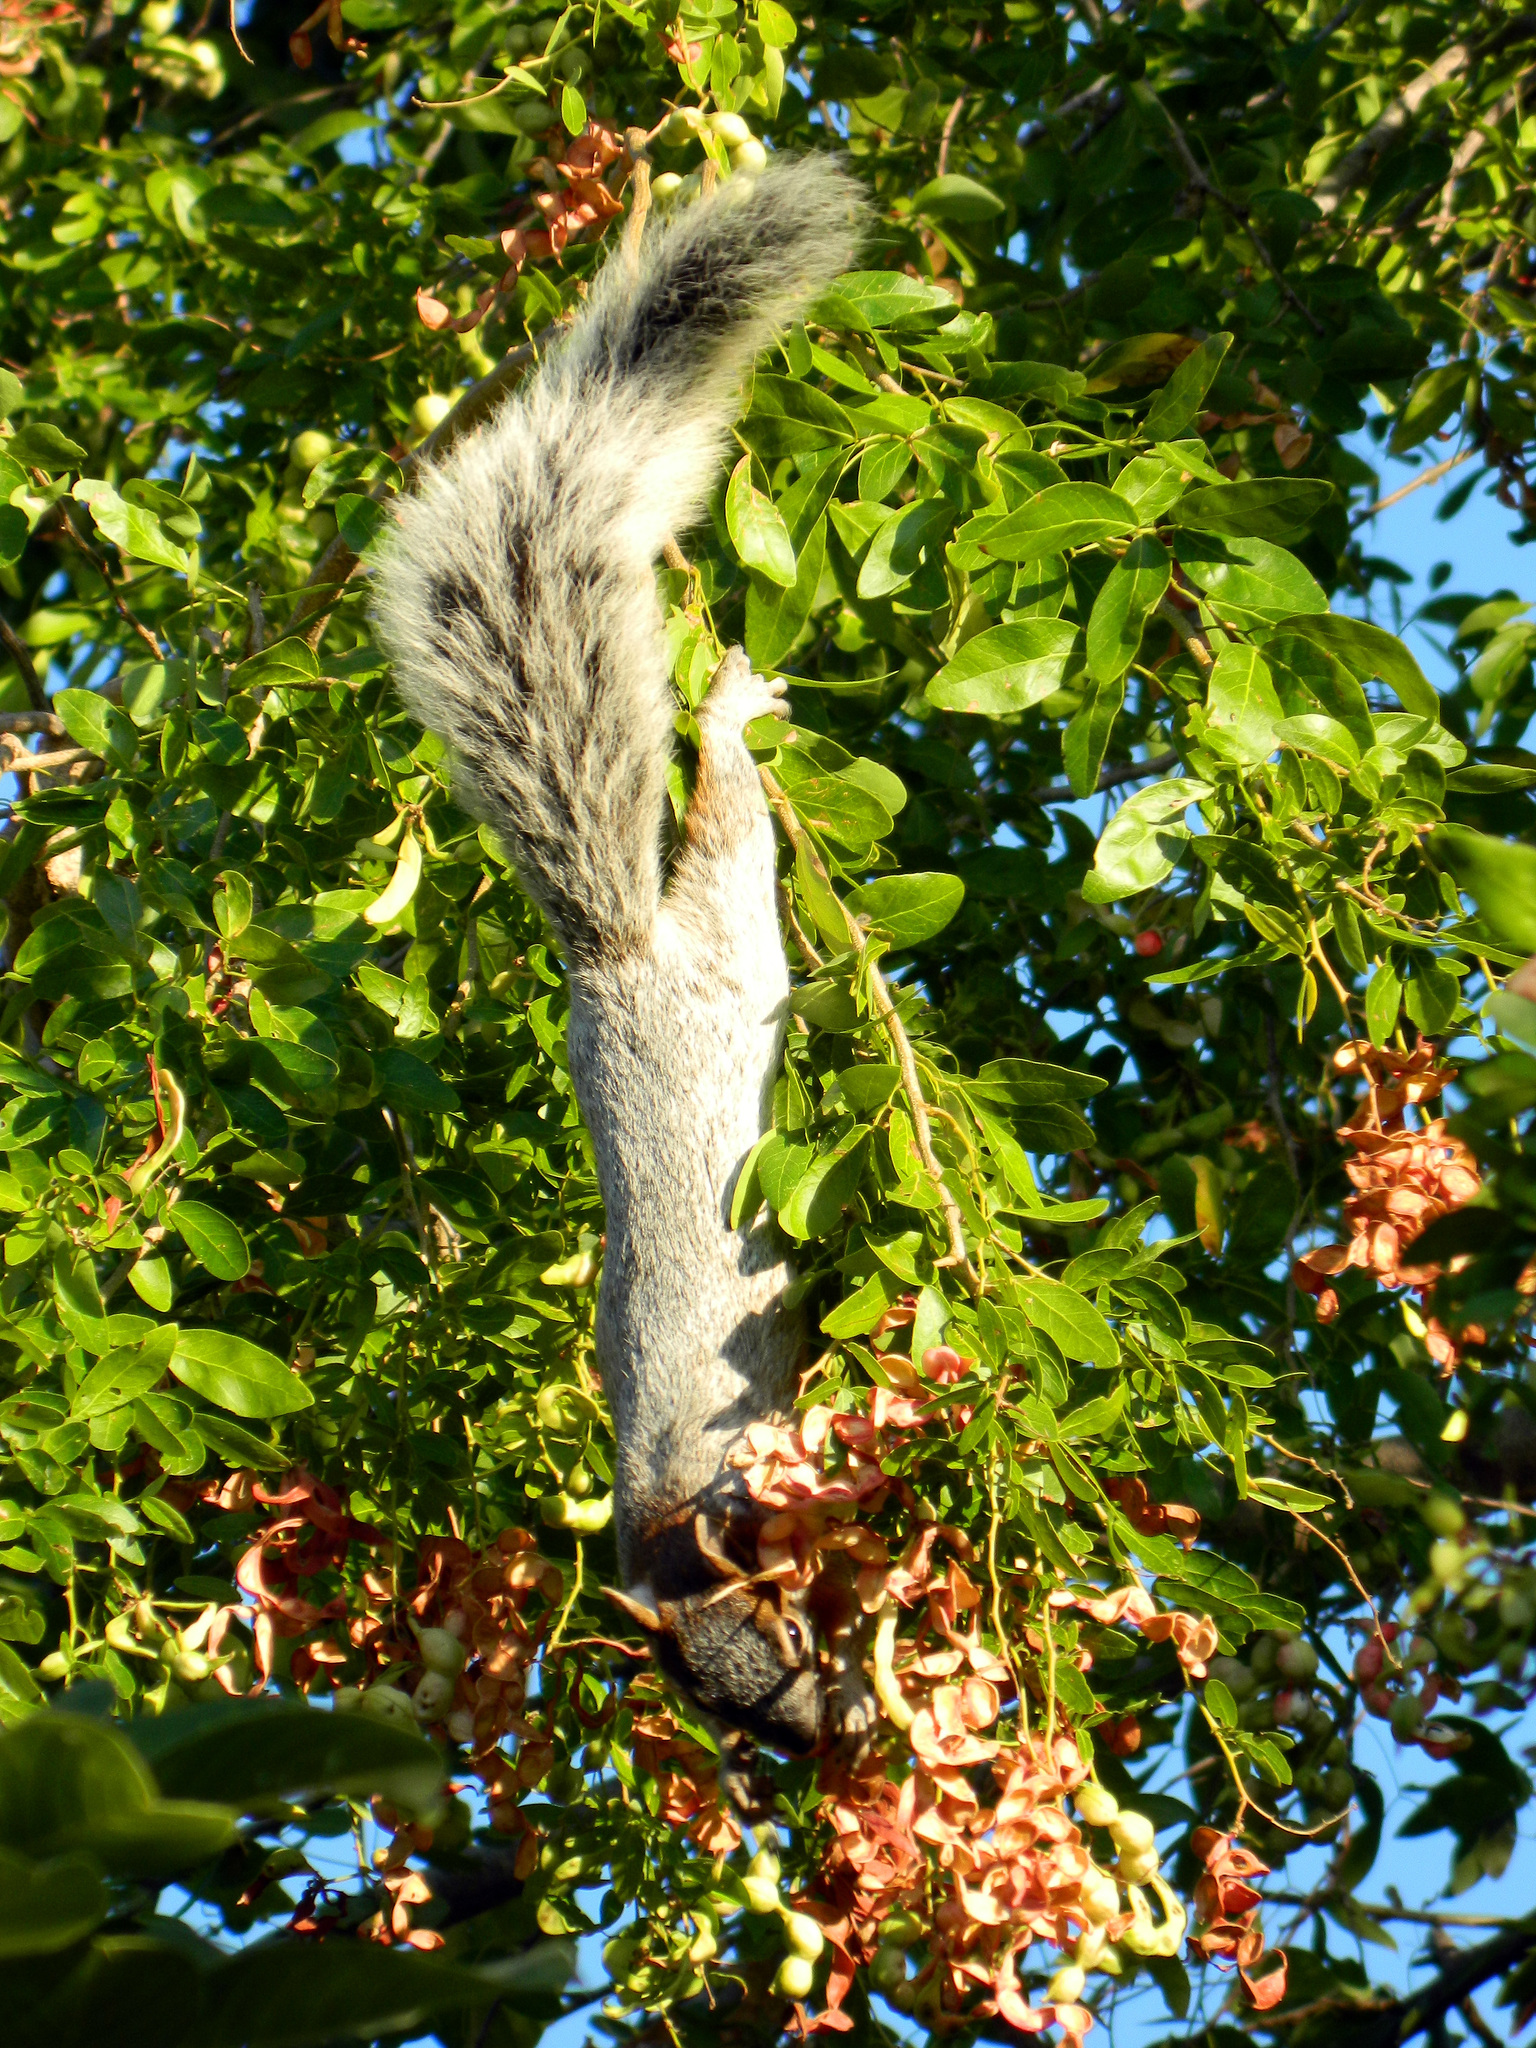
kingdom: Animalia
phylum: Chordata
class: Mammalia
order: Rodentia
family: Sciuridae
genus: Sciurus
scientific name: Sciurus aureogaster
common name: Red-bellied squirrel
